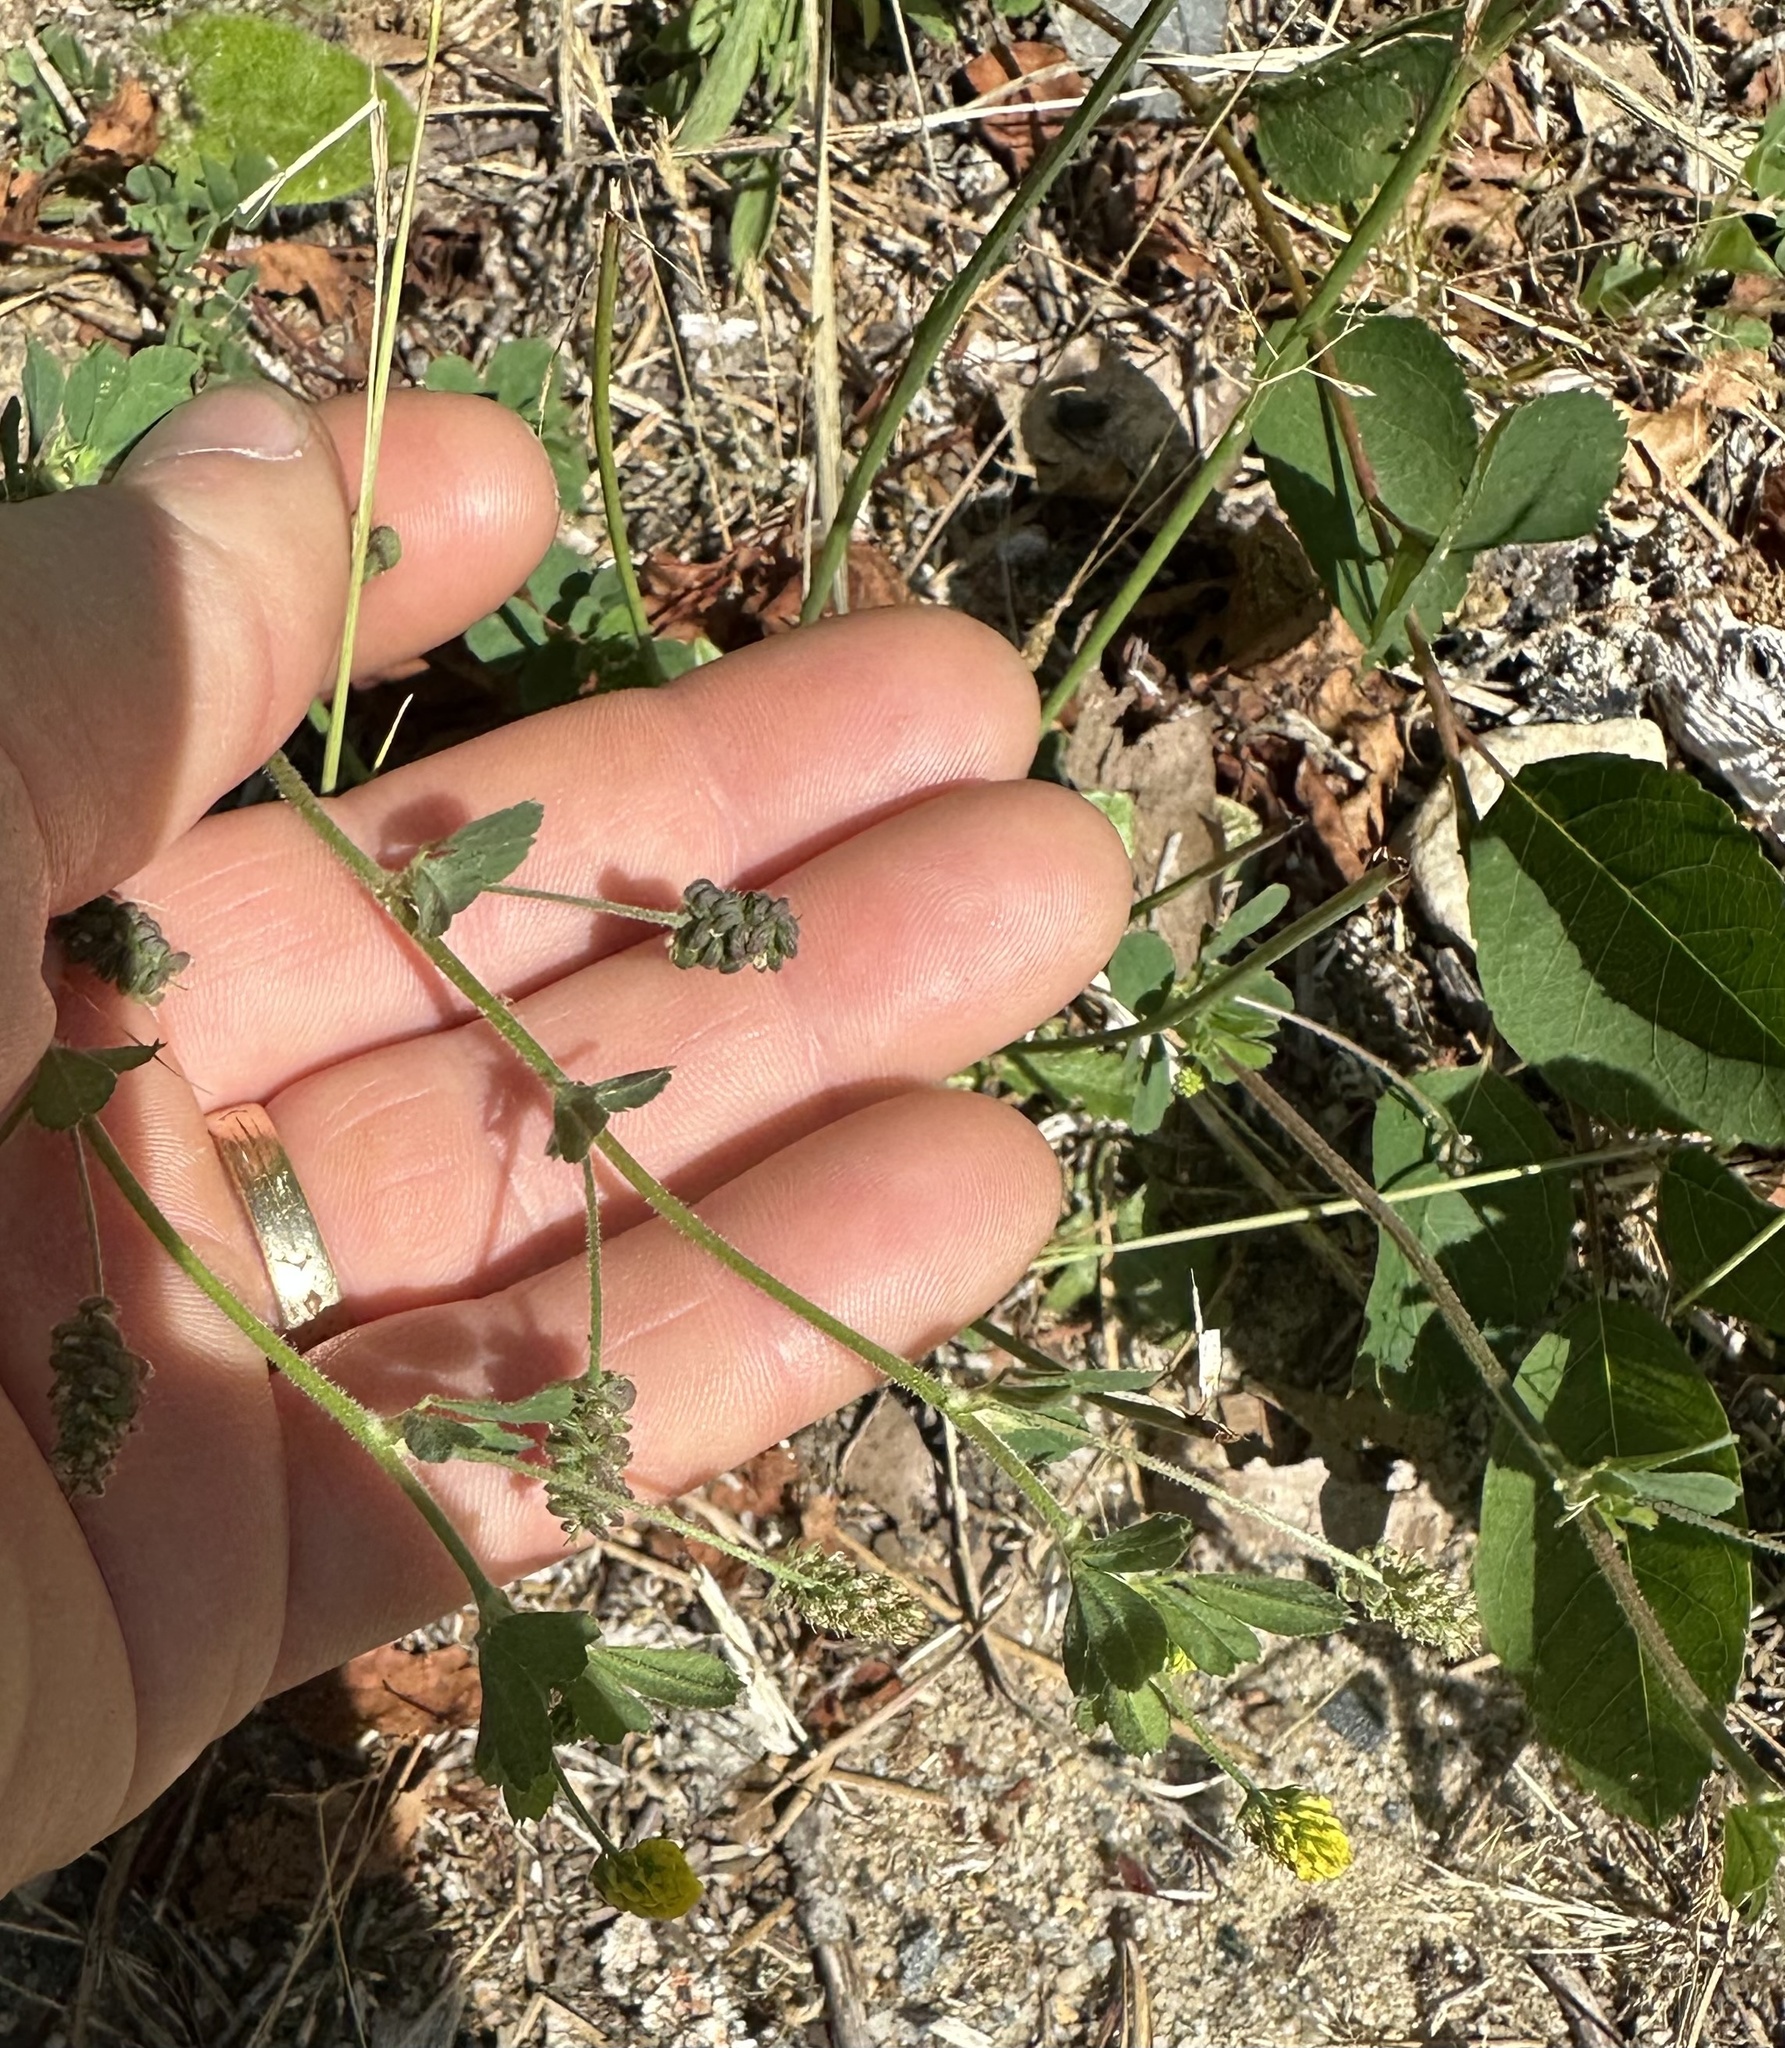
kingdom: Plantae
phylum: Tracheophyta
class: Magnoliopsida
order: Fabales
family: Fabaceae
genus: Medicago
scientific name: Medicago lupulina
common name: Black medick
